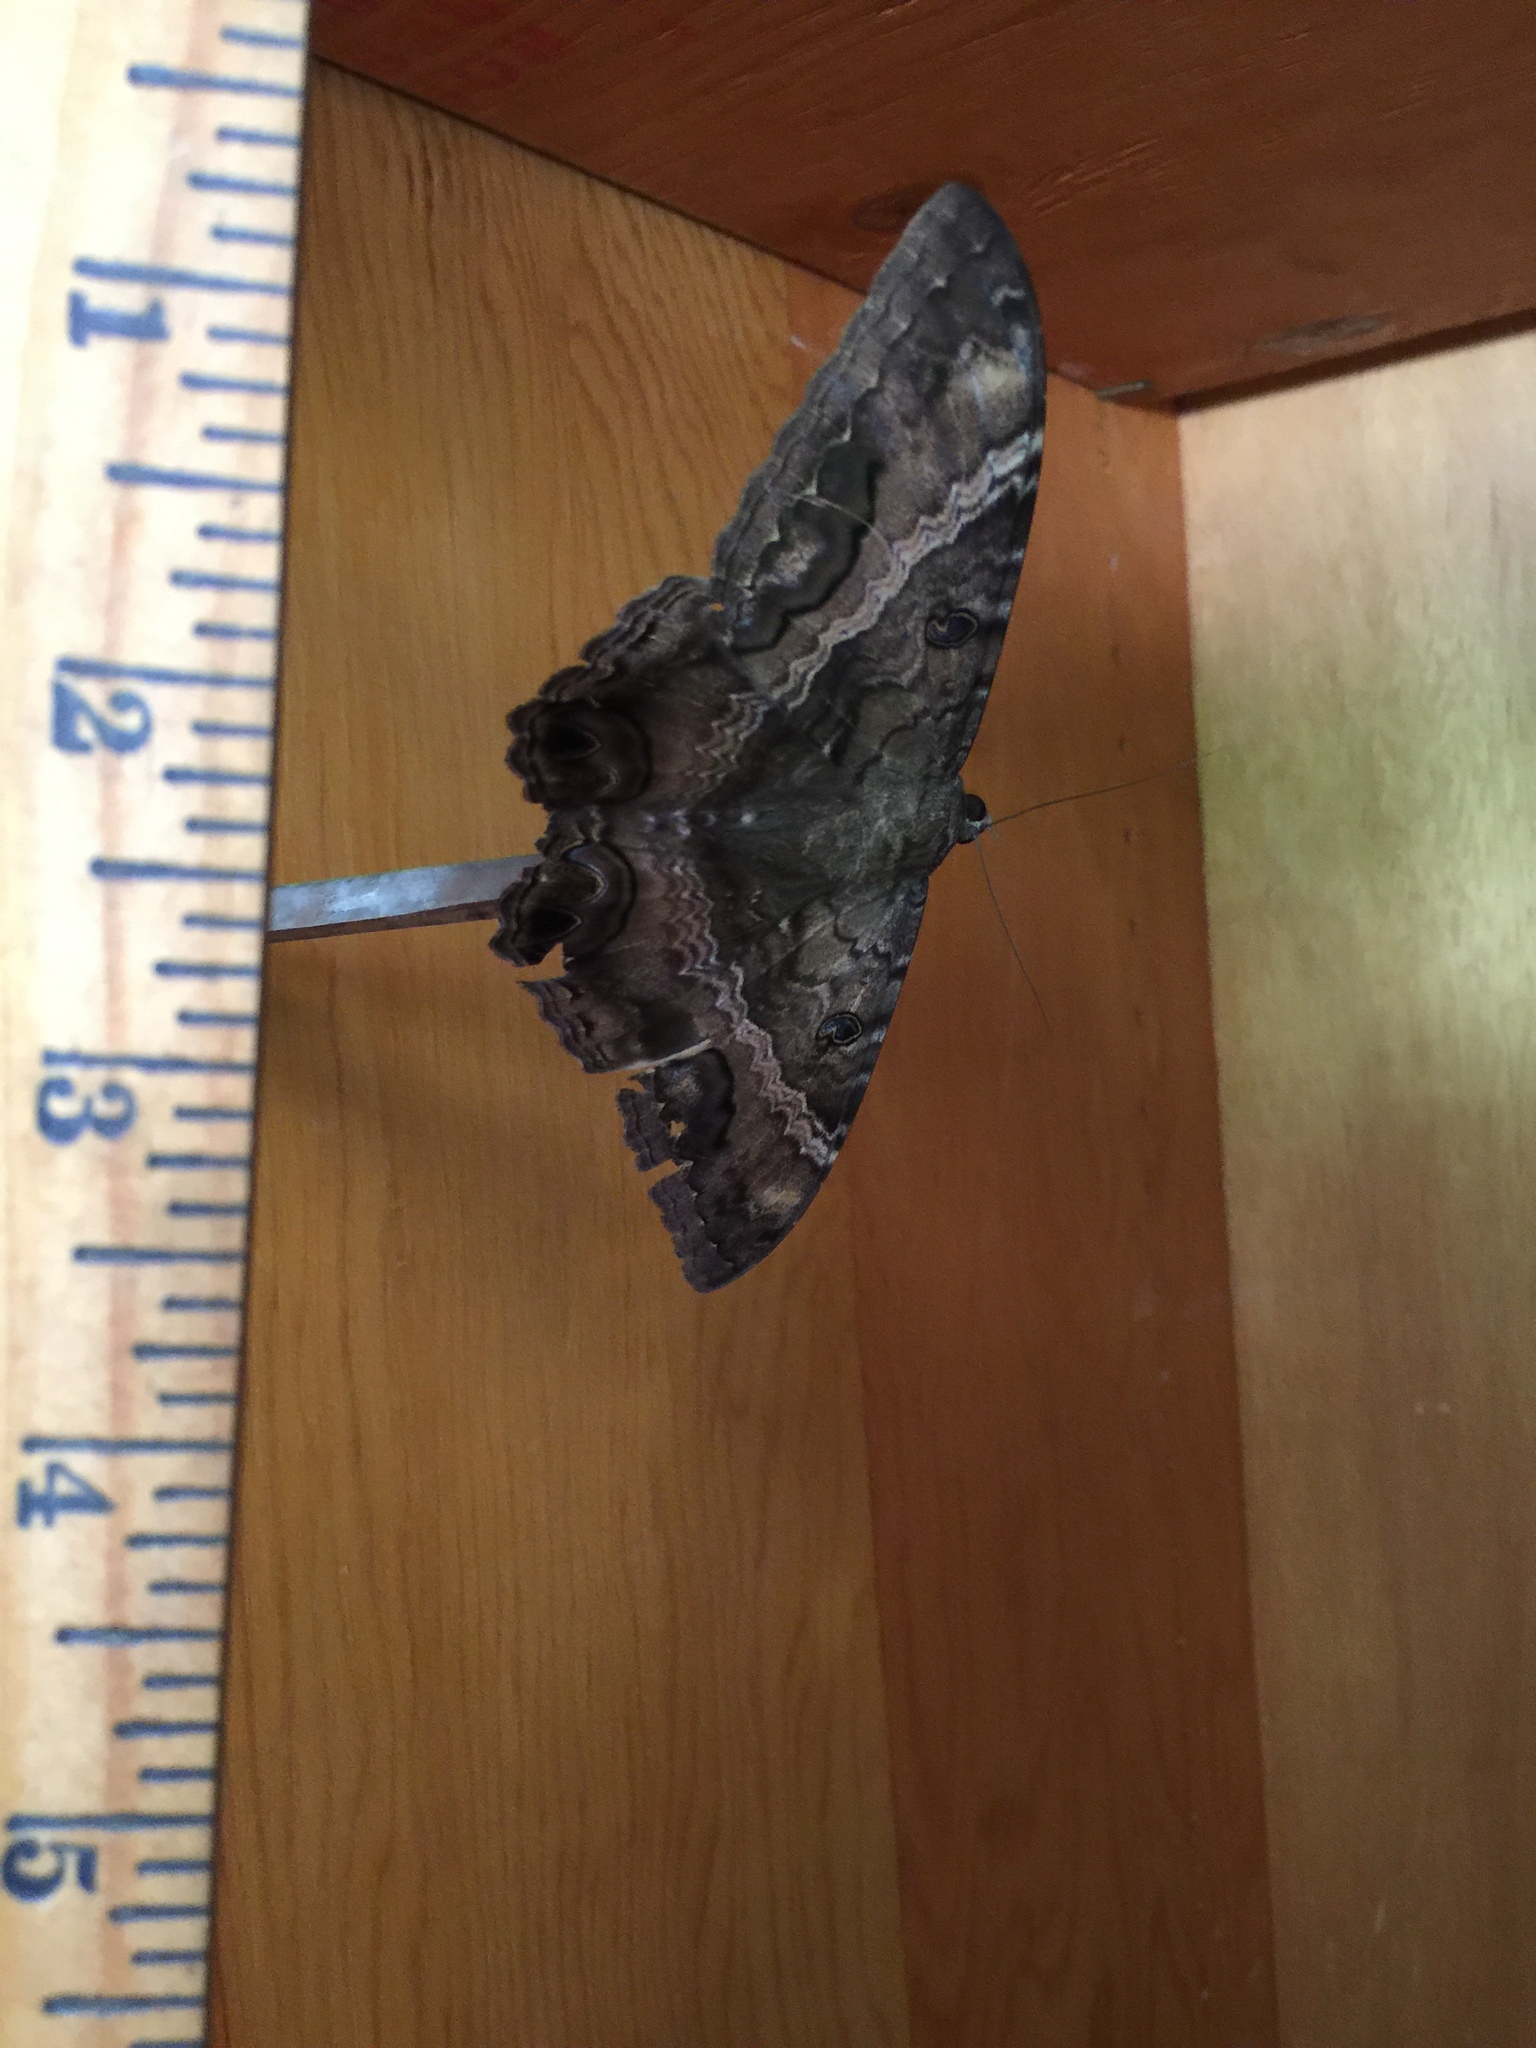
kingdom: Animalia
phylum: Arthropoda
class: Insecta
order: Lepidoptera
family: Erebidae
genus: Ascalapha
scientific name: Ascalapha odorata
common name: Black witch
